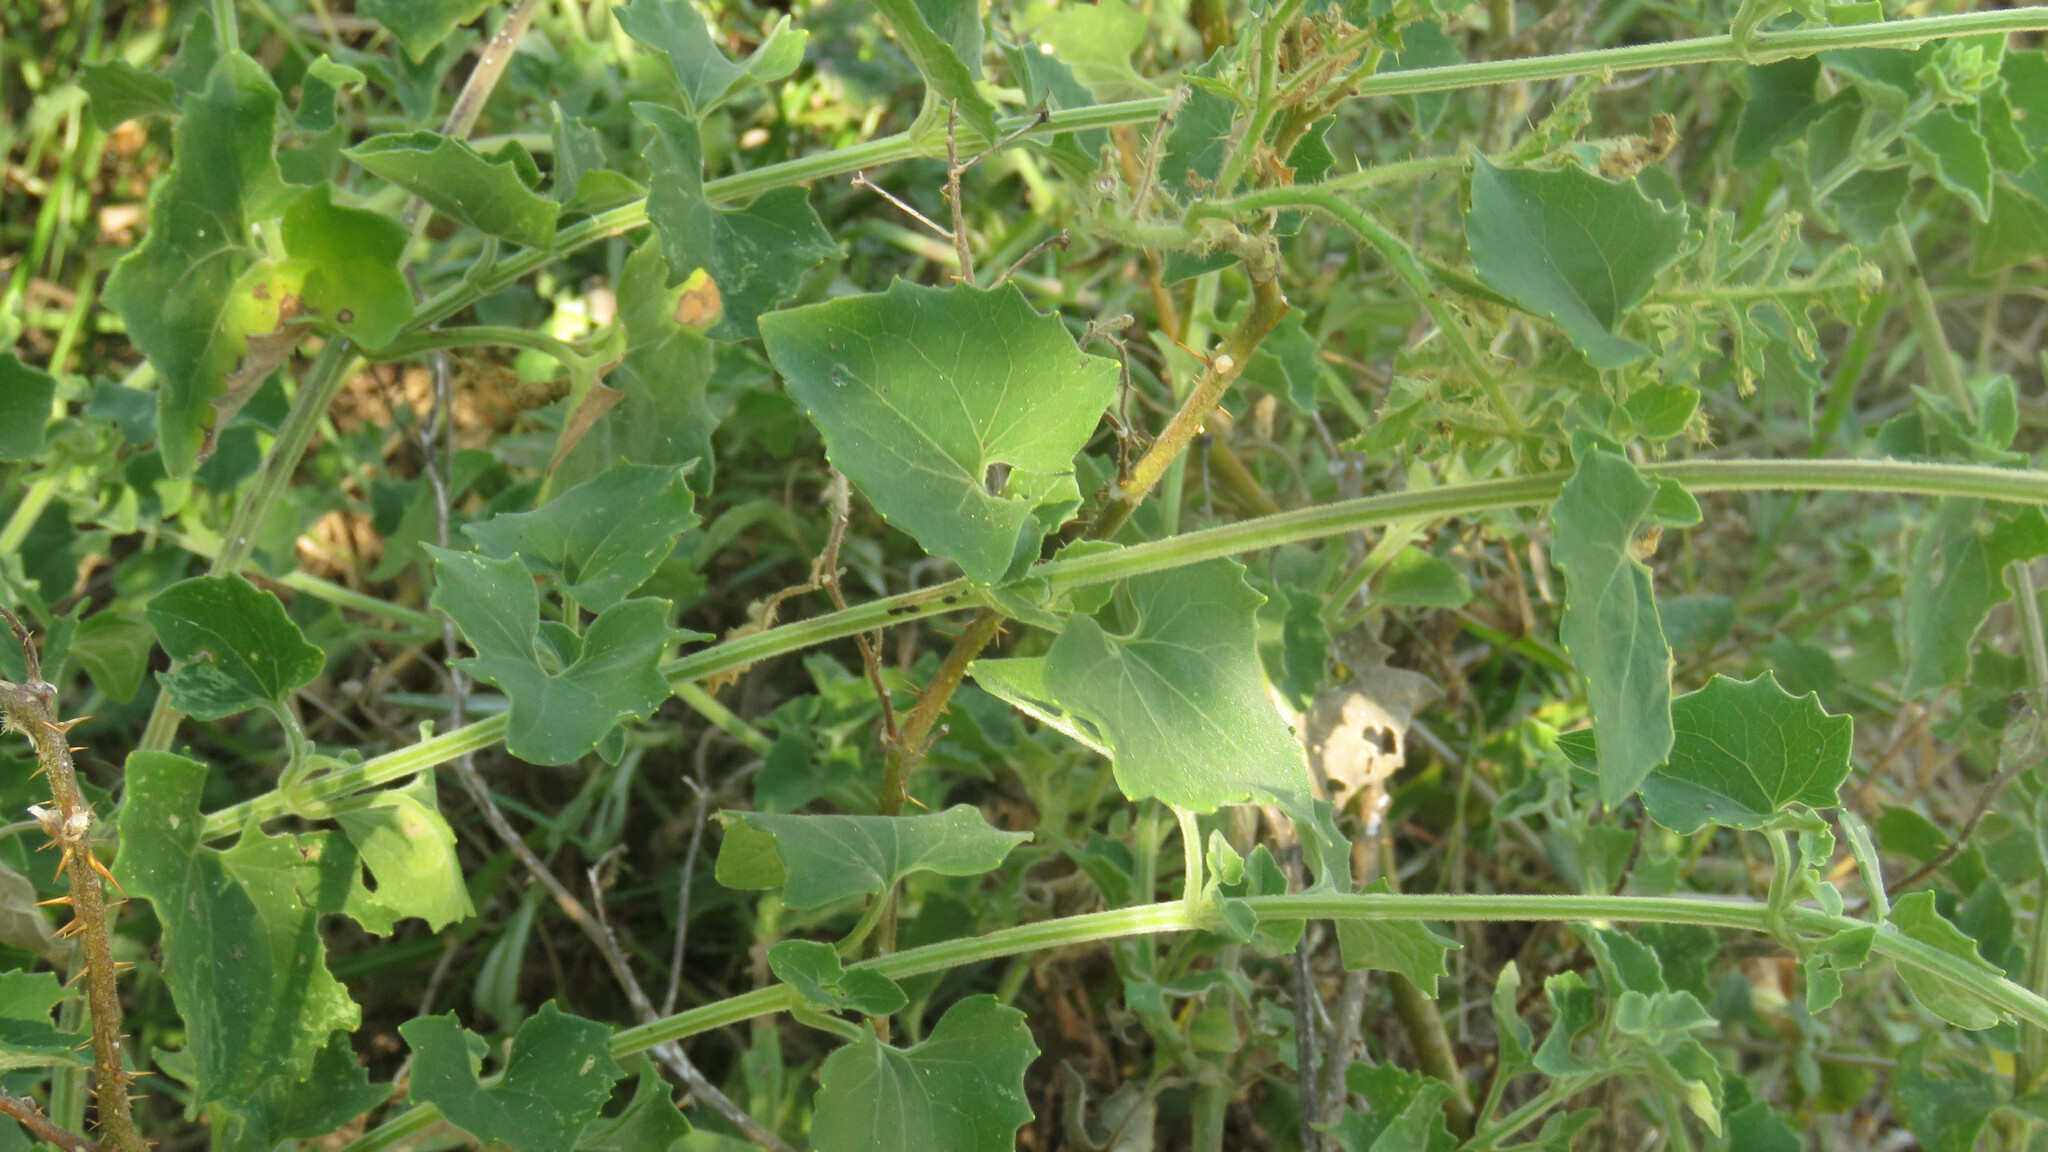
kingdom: Plantae
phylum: Tracheophyta
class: Magnoliopsida
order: Solanales
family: Solanaceae
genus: Solanum
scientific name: Solanum sisymbriifolium
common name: Red buffalo-bur
